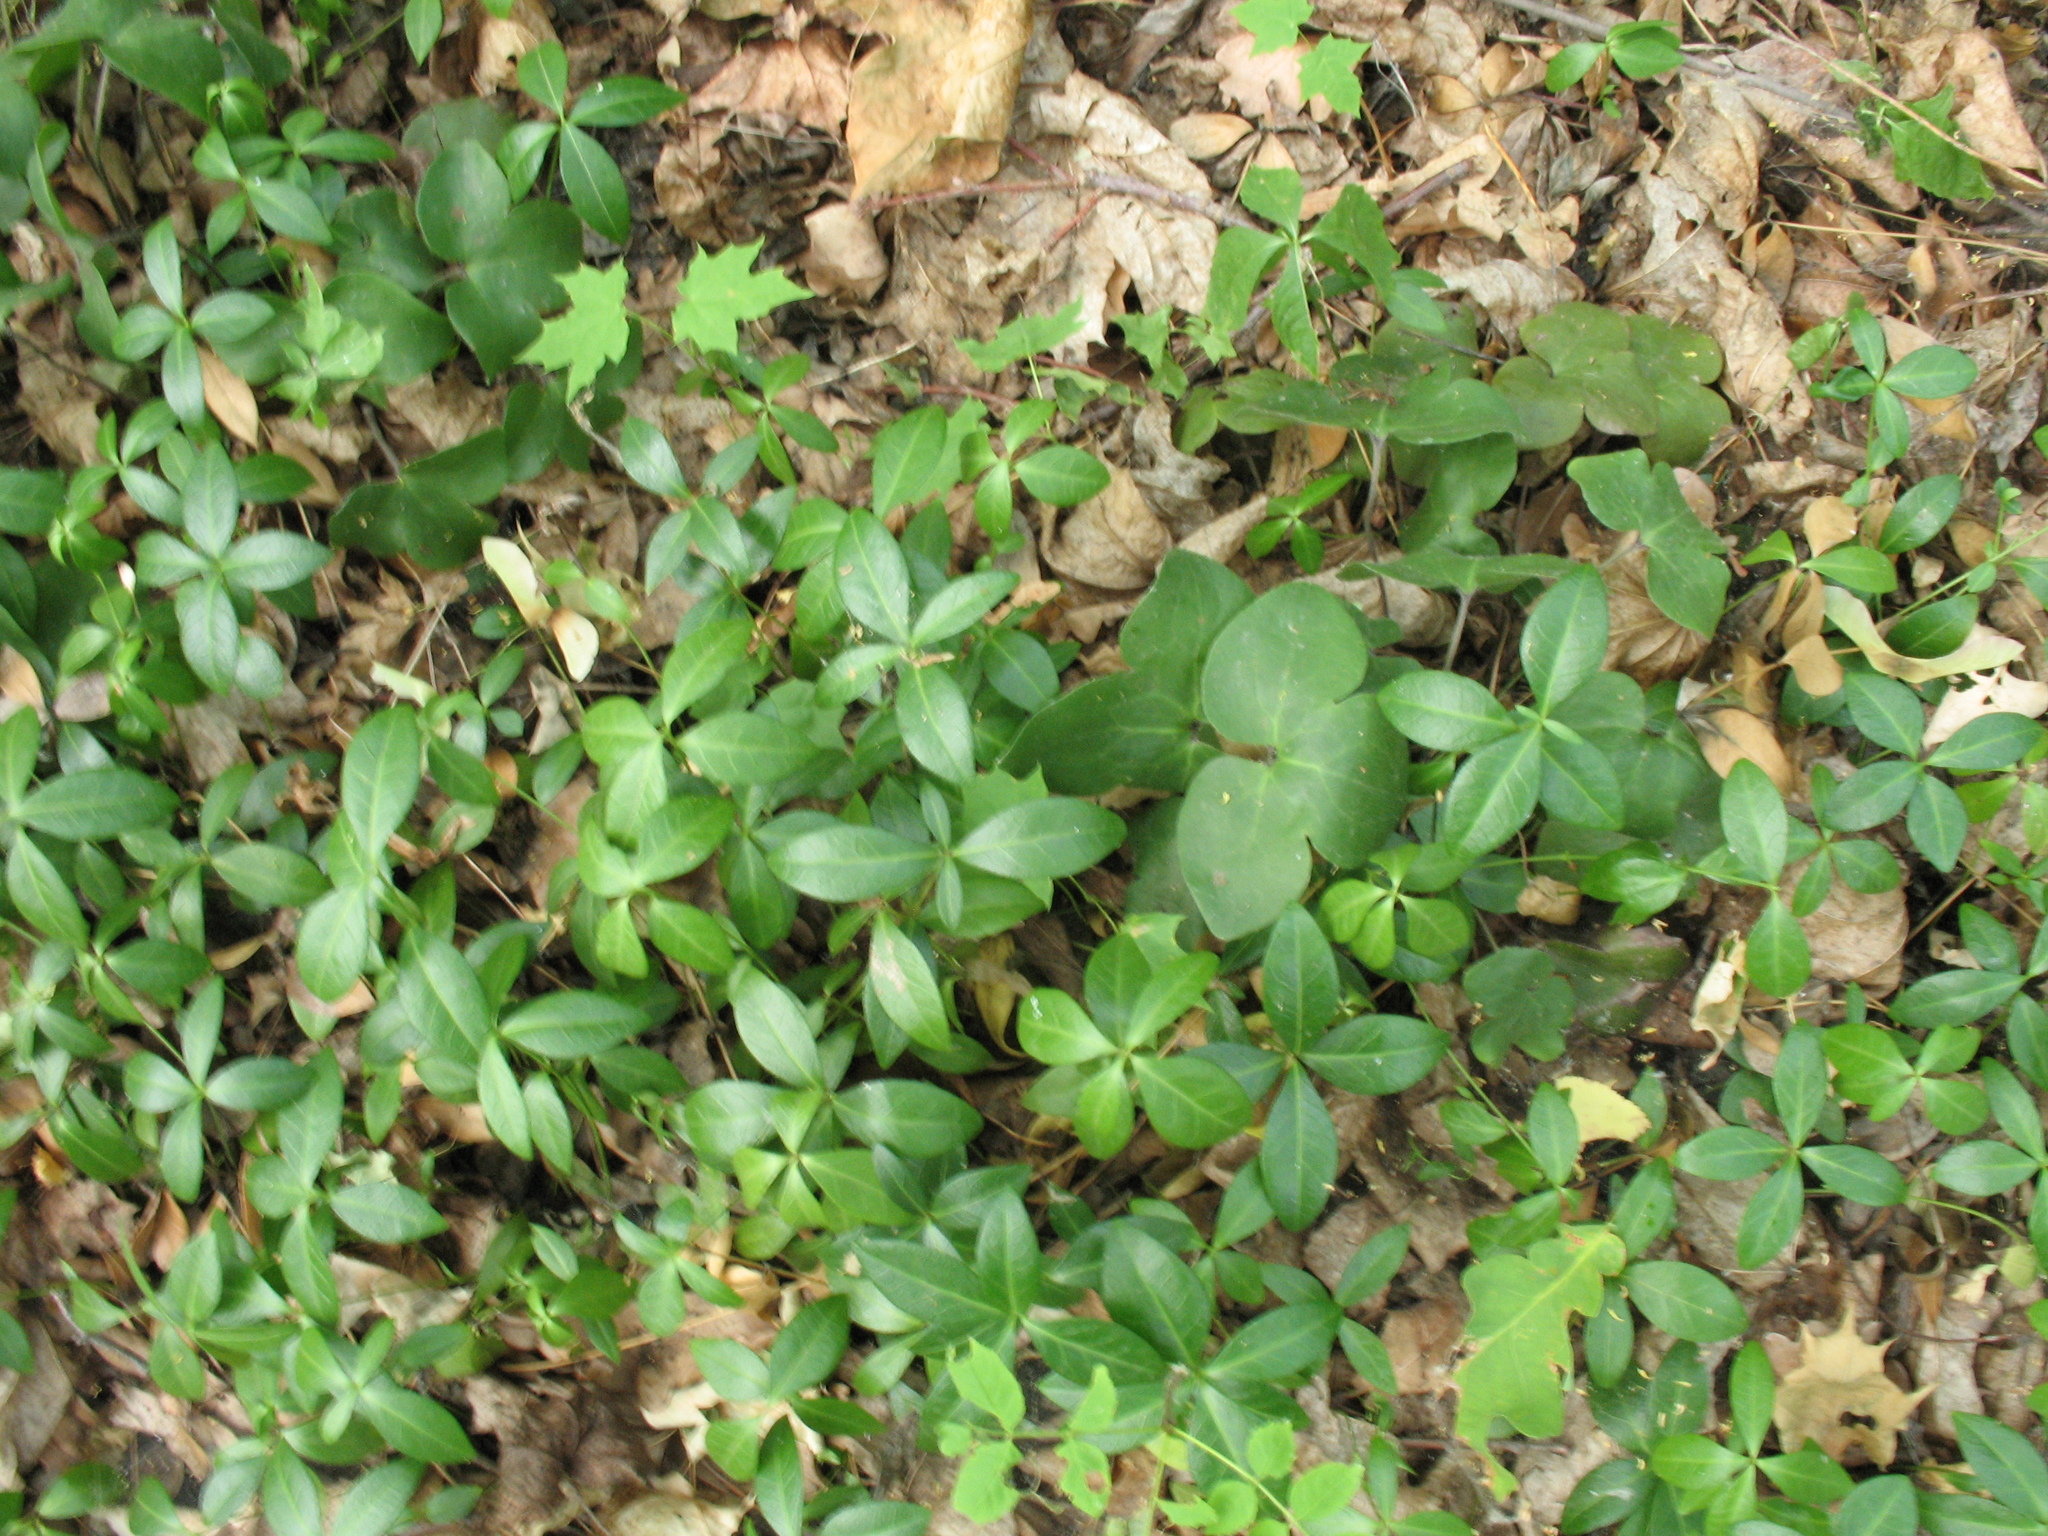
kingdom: Plantae
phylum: Tracheophyta
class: Magnoliopsida
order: Gentianales
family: Apocynaceae
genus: Vinca
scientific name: Vinca minor
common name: Lesser periwinkle
